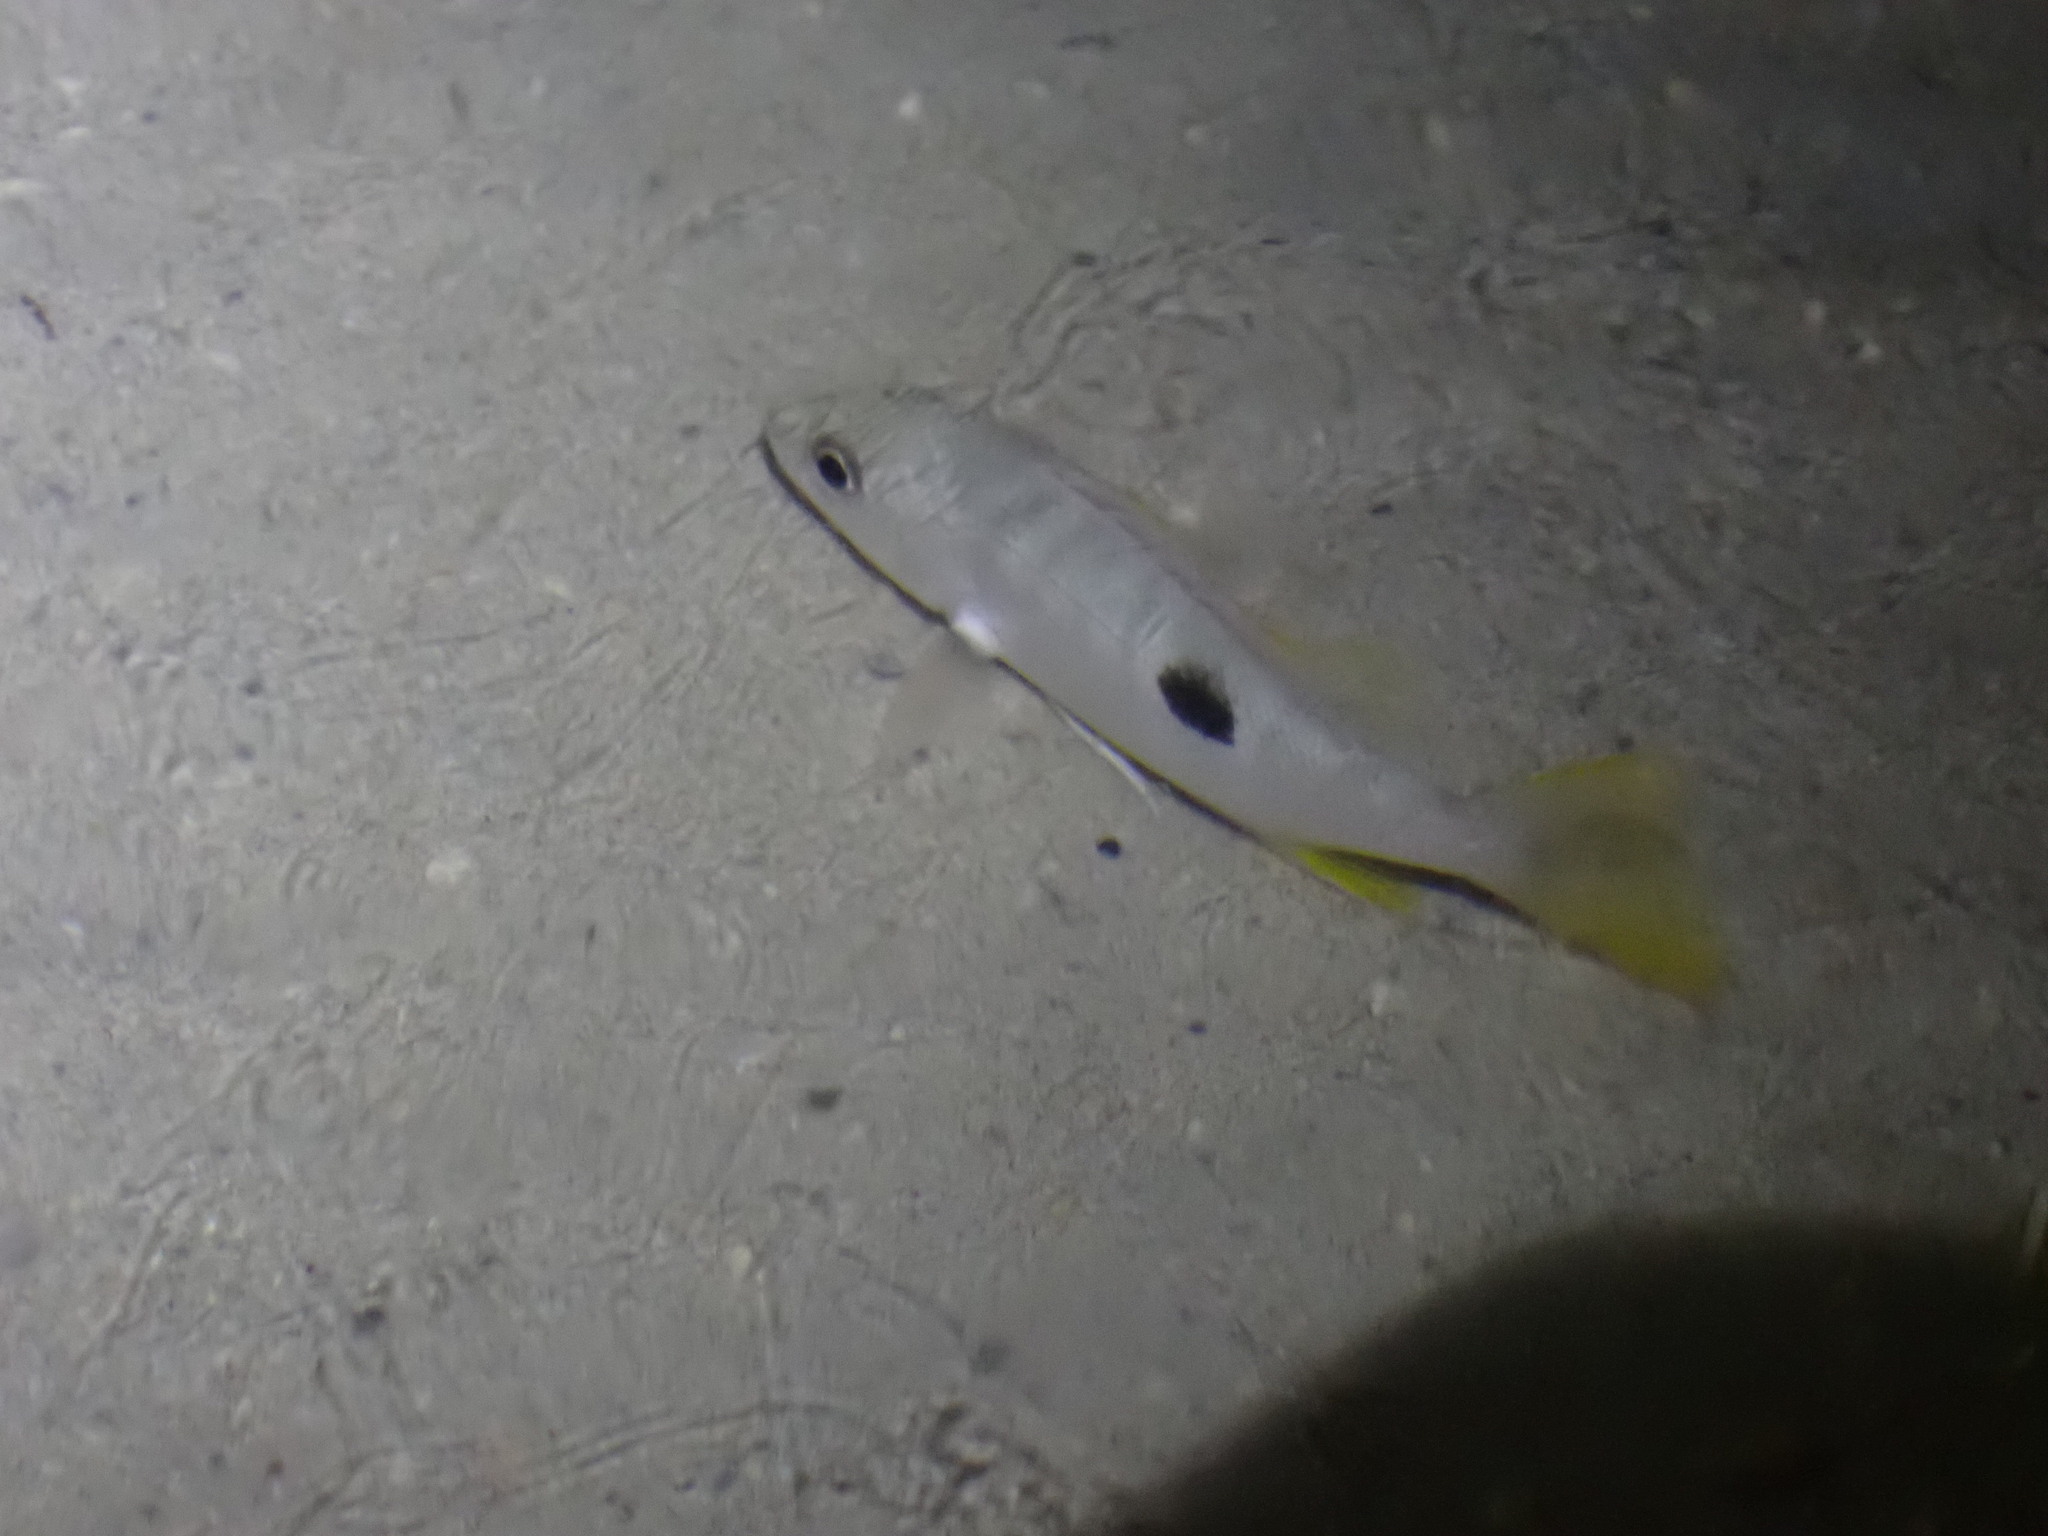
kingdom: Animalia
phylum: Chordata
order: Perciformes
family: Lutjanidae
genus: Lutjanus
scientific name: Lutjanus monostigma
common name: Onespot snapper
